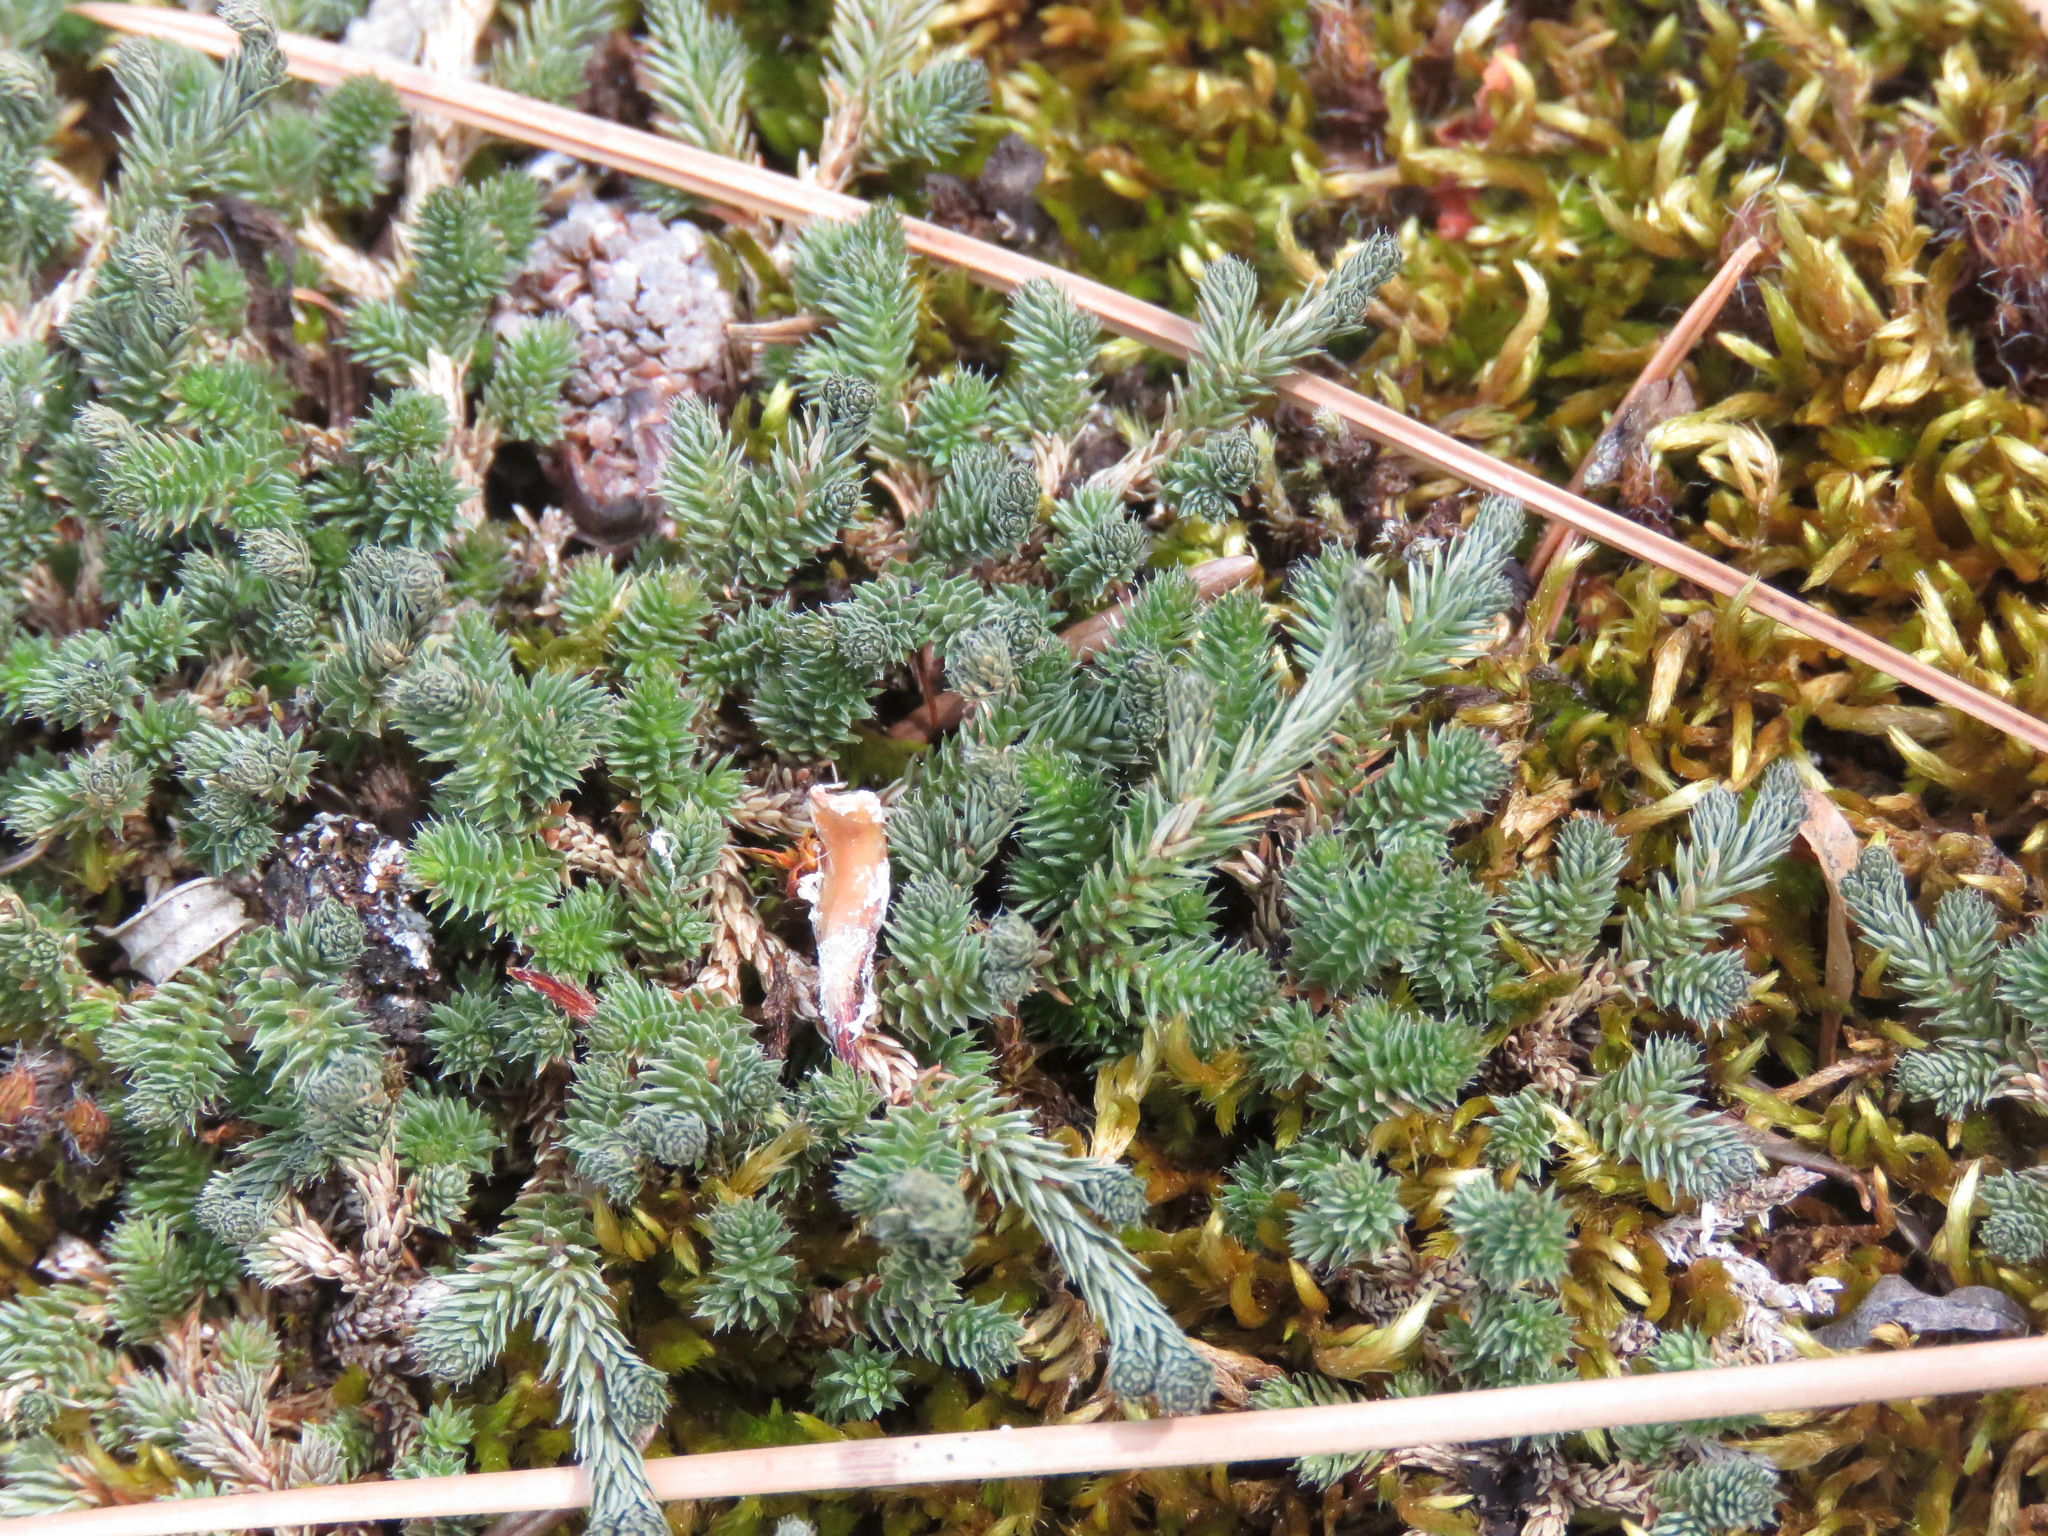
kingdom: Plantae
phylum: Tracheophyta
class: Lycopodiopsida
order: Selaginellales
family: Selaginellaceae
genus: Selaginella
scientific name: Selaginella wallacei
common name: Wallace's selaginella
